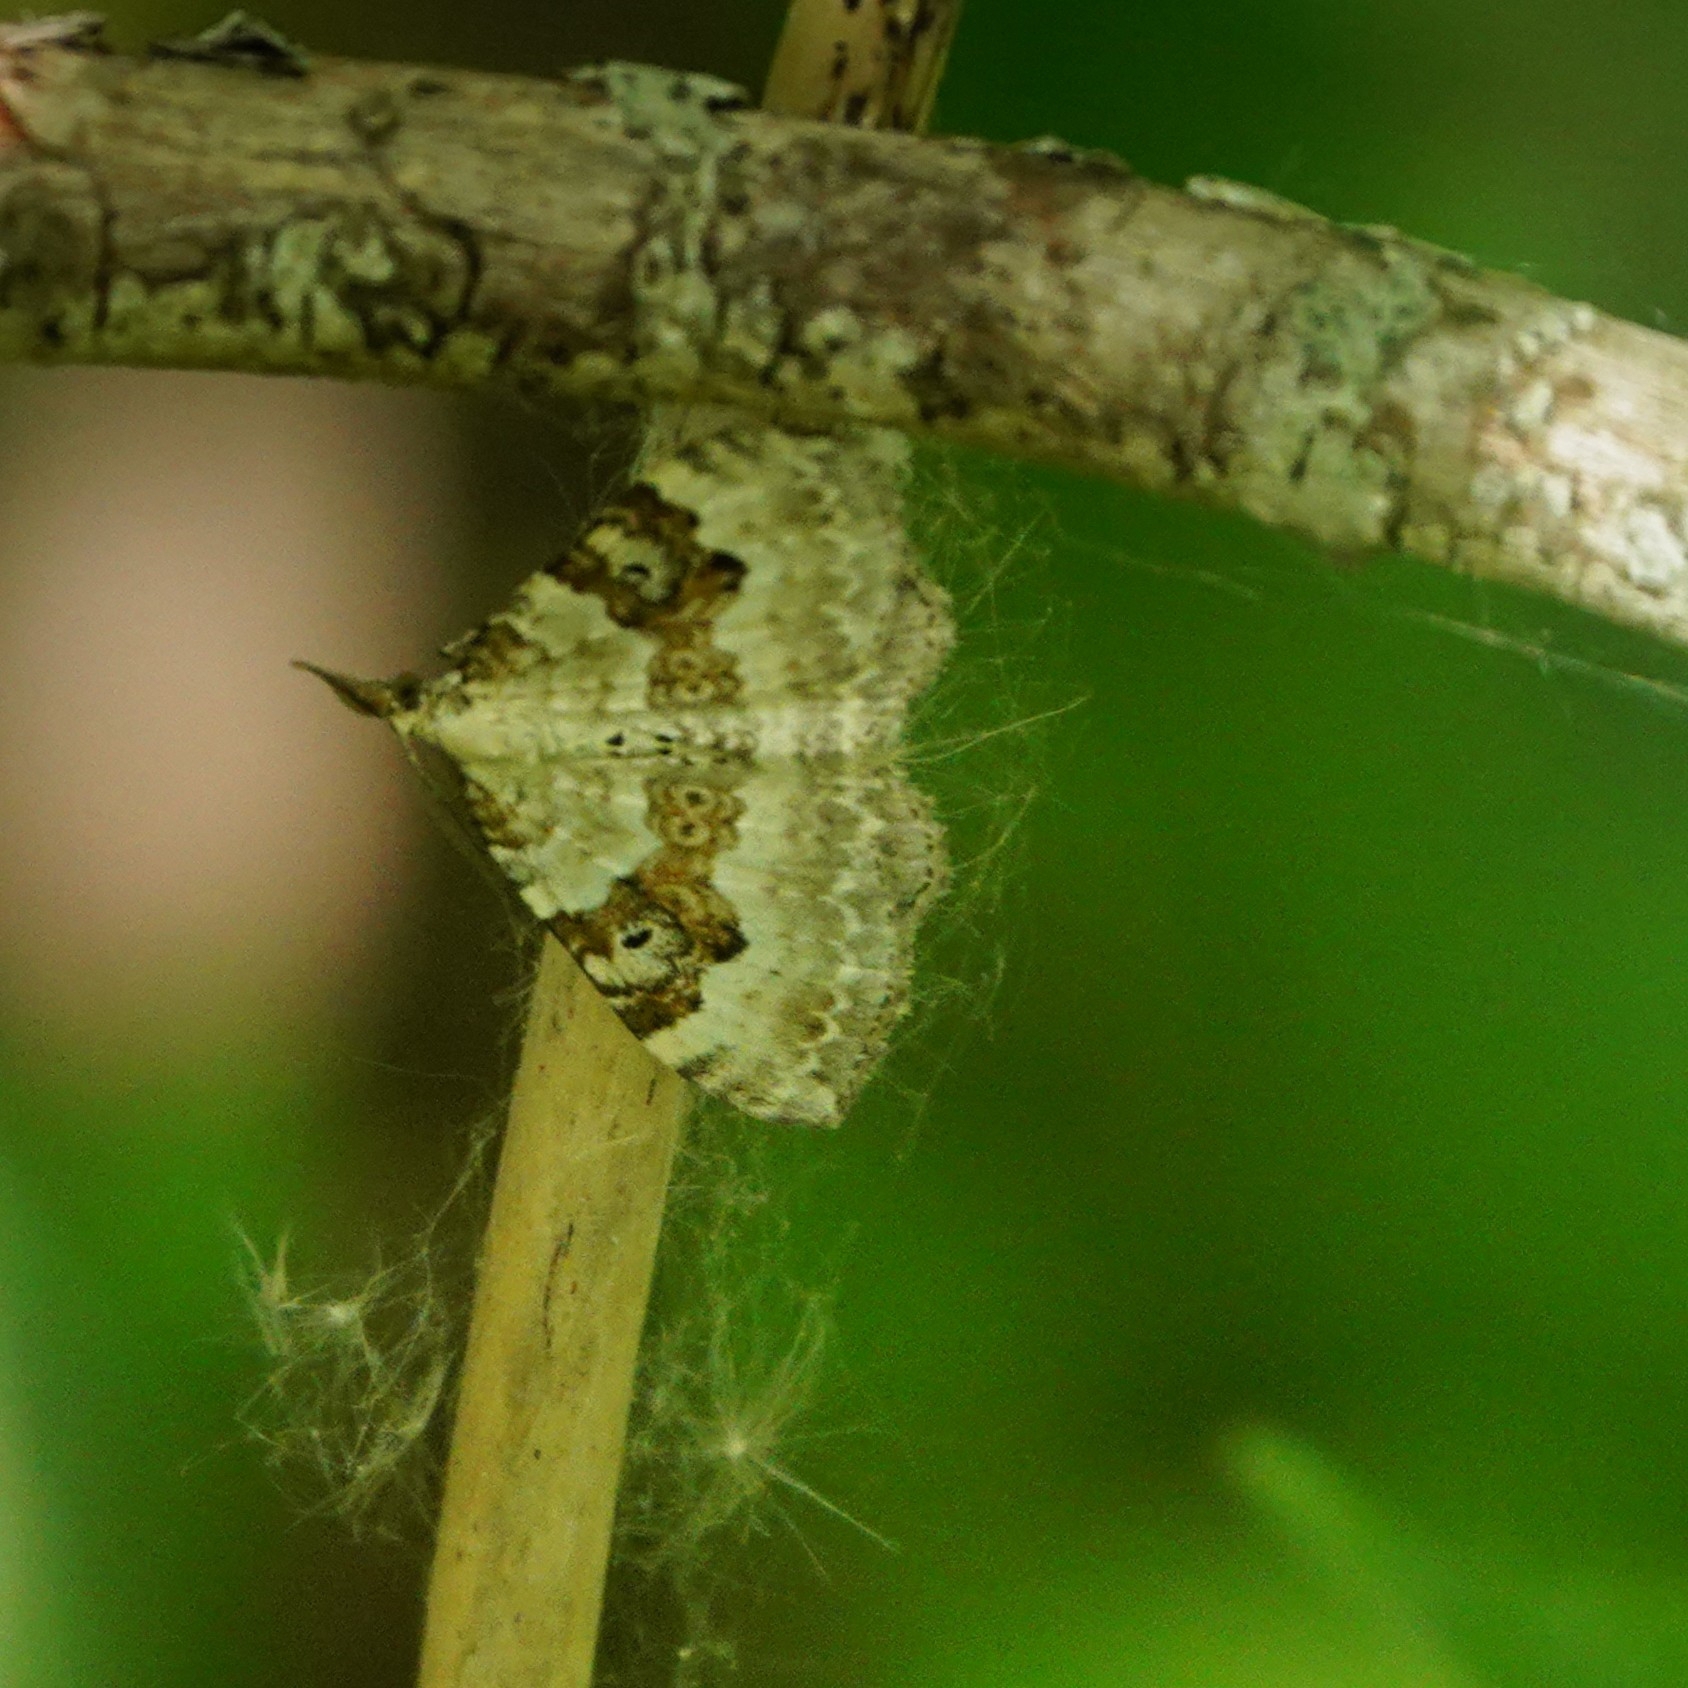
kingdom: Animalia
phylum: Arthropoda
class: Insecta
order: Lepidoptera
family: Geometridae
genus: Xanthorhoe
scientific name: Xanthorhoe montanata
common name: Silver-ground carpet
